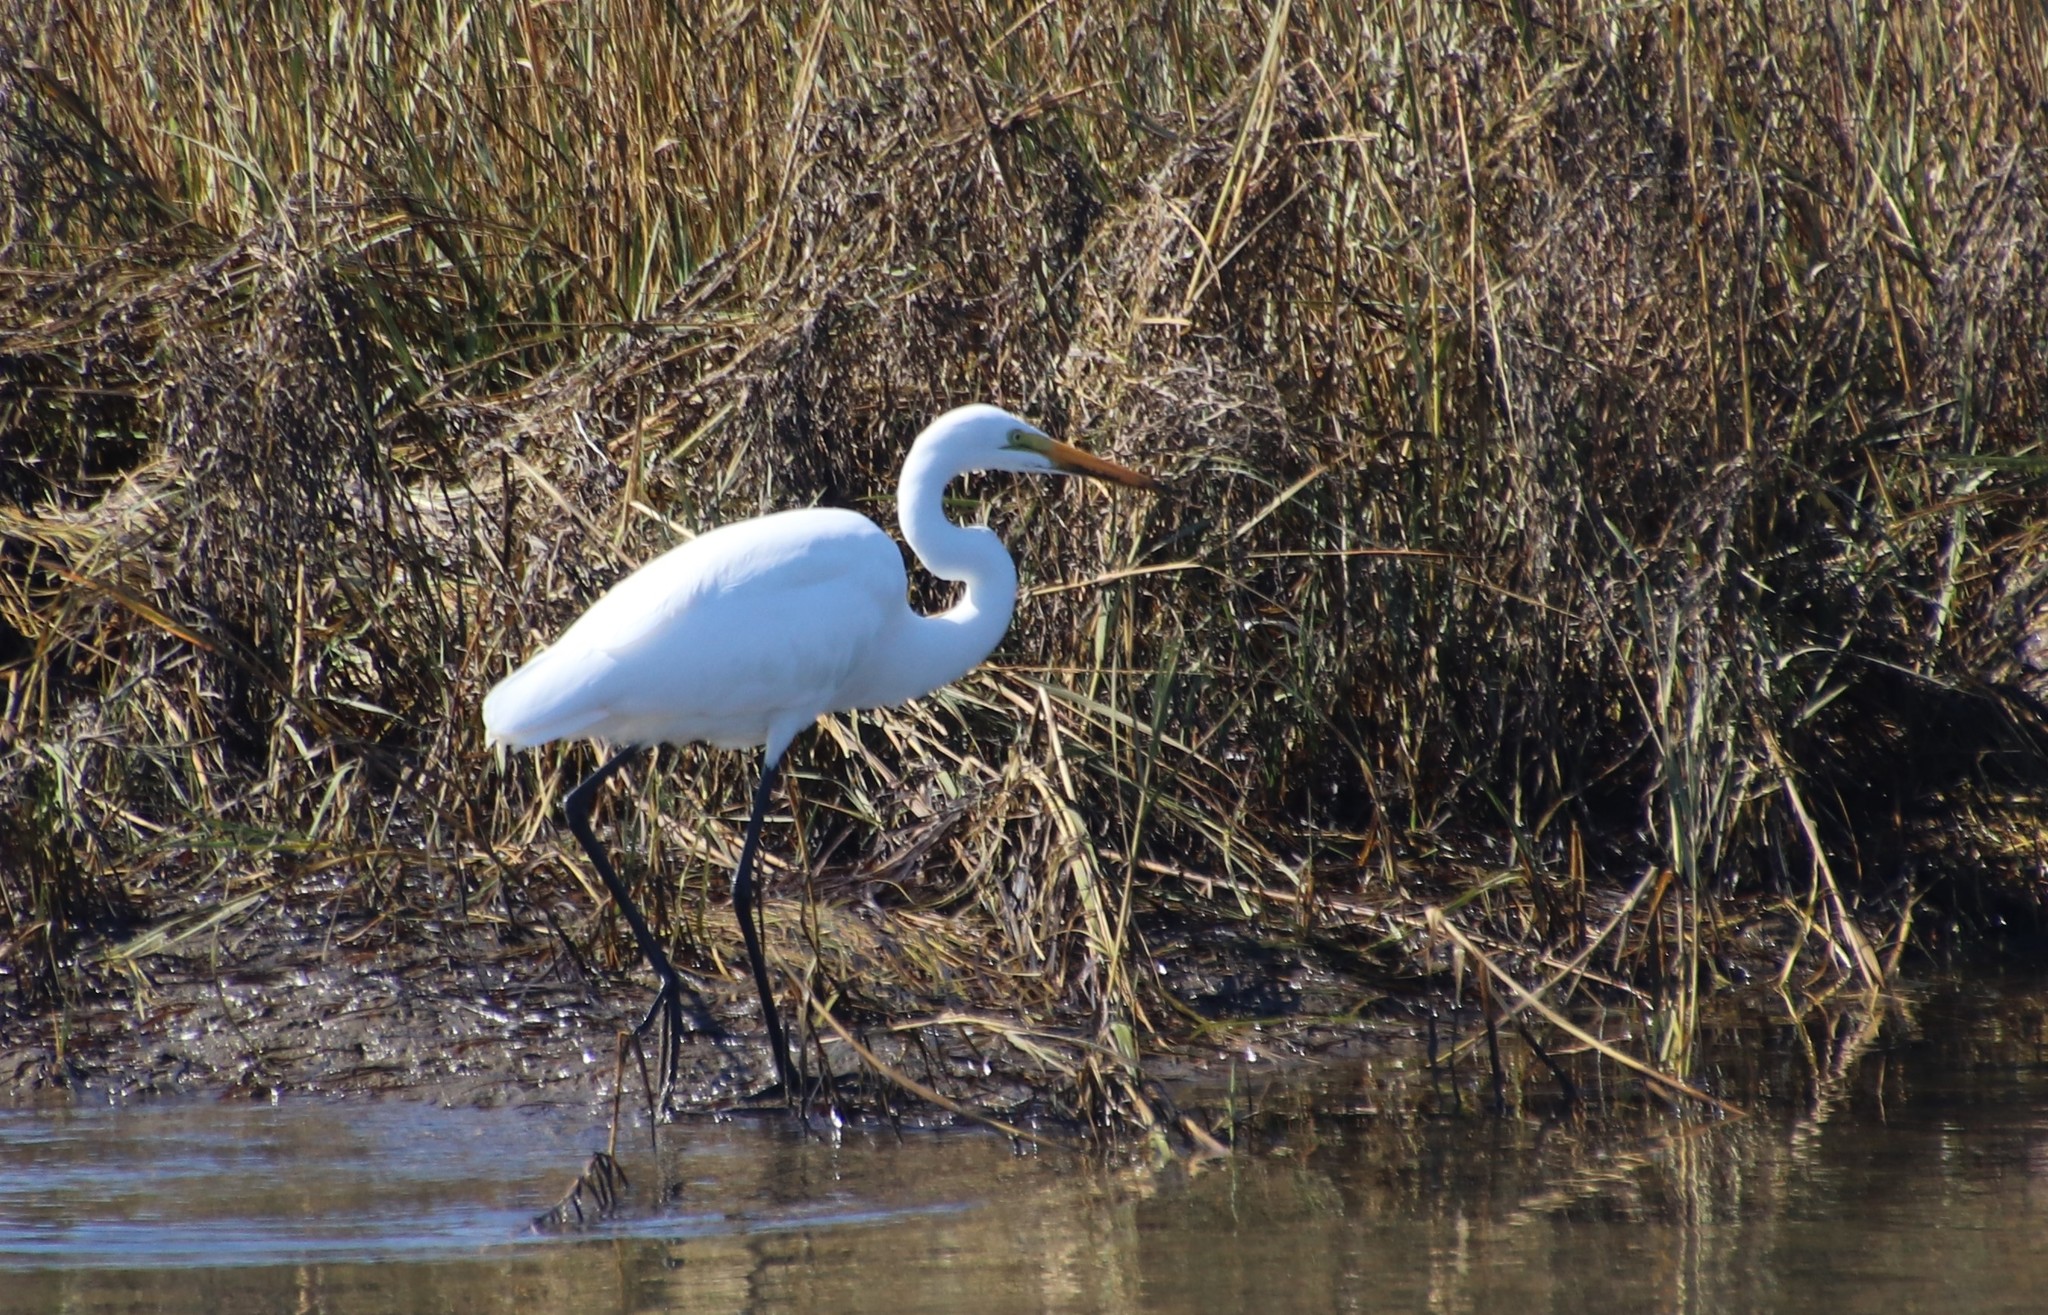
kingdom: Animalia
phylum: Chordata
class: Aves
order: Pelecaniformes
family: Ardeidae
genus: Ardea
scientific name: Ardea alba
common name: Great egret
